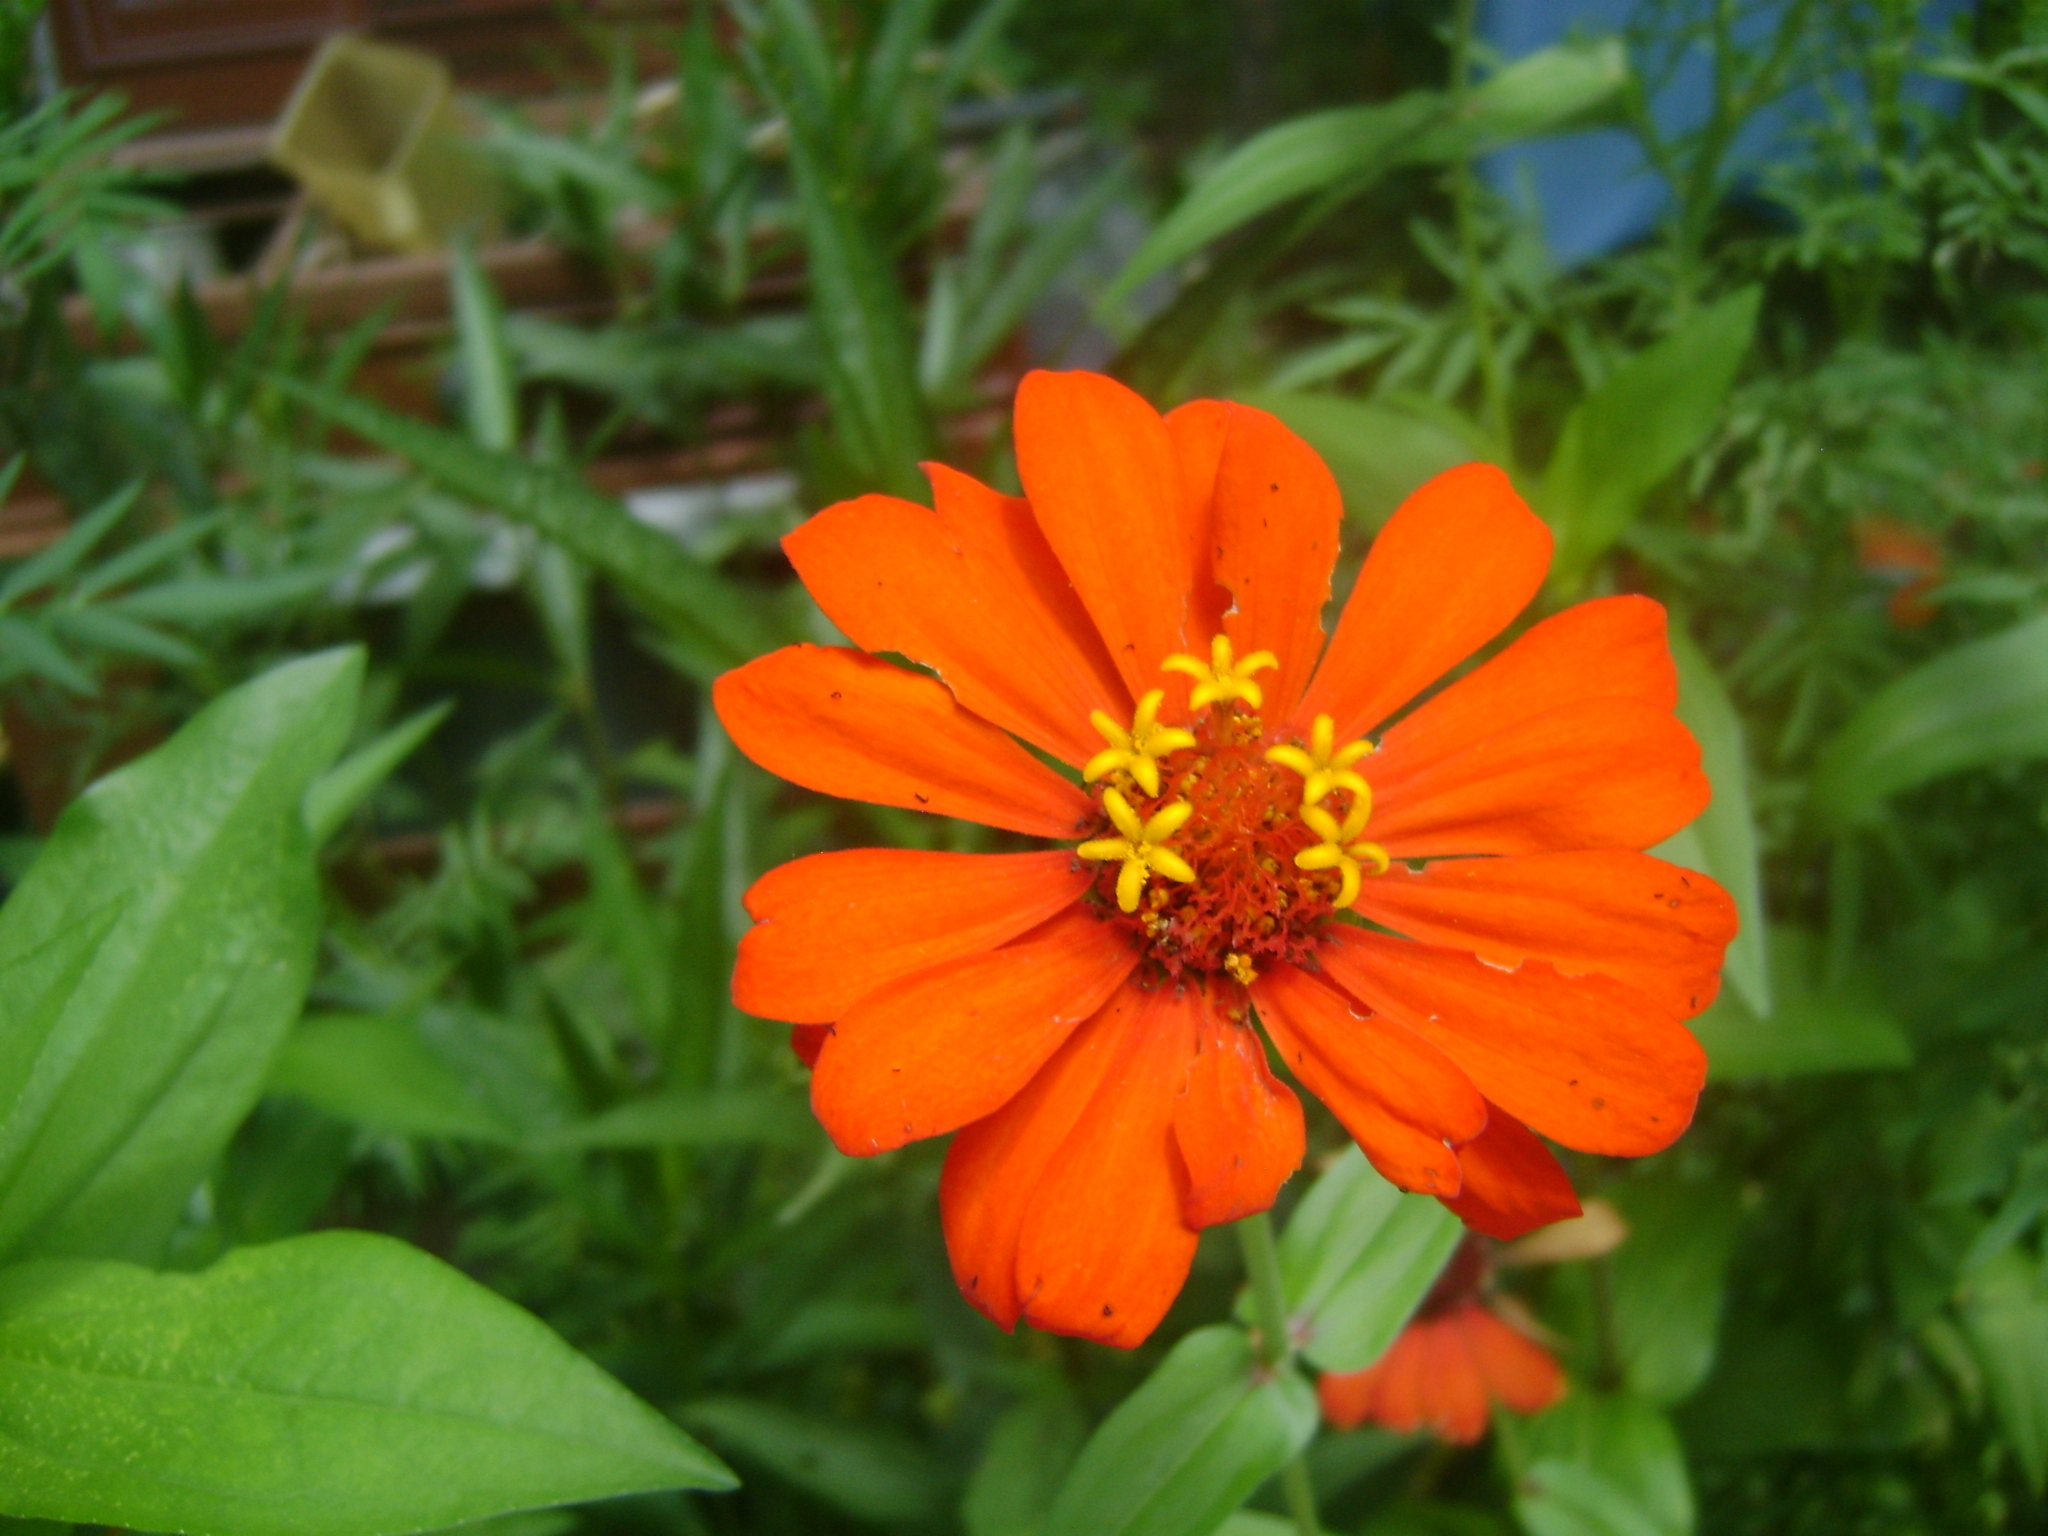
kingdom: Plantae
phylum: Tracheophyta
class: Magnoliopsida
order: Asterales
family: Asteraceae
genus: Zinnia
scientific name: Zinnia elegans
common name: Youth-and-age
